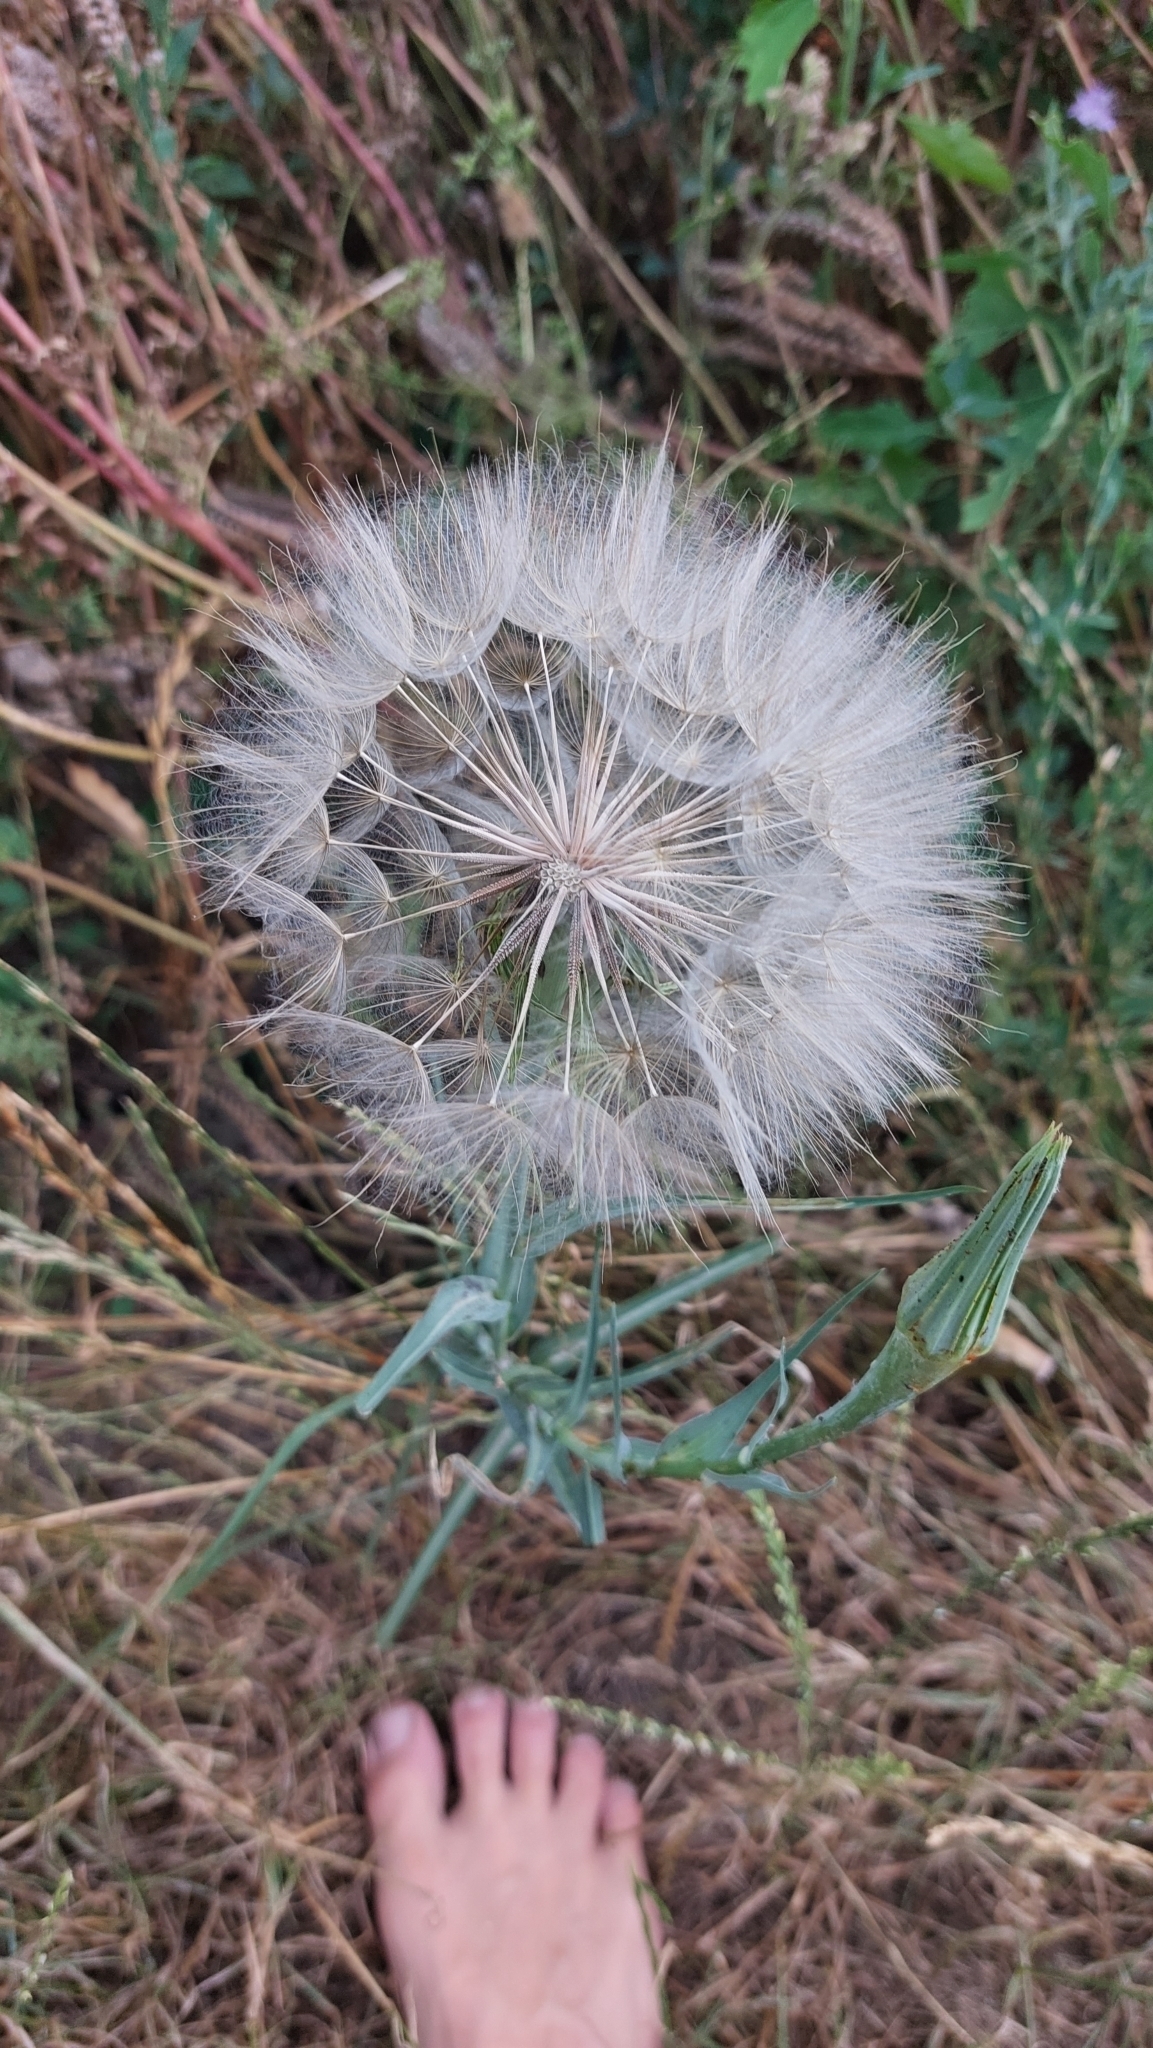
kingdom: Plantae
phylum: Tracheophyta
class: Magnoliopsida
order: Asterales
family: Asteraceae
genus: Tragopogon
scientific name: Tragopogon dubius
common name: Yellow salsify
